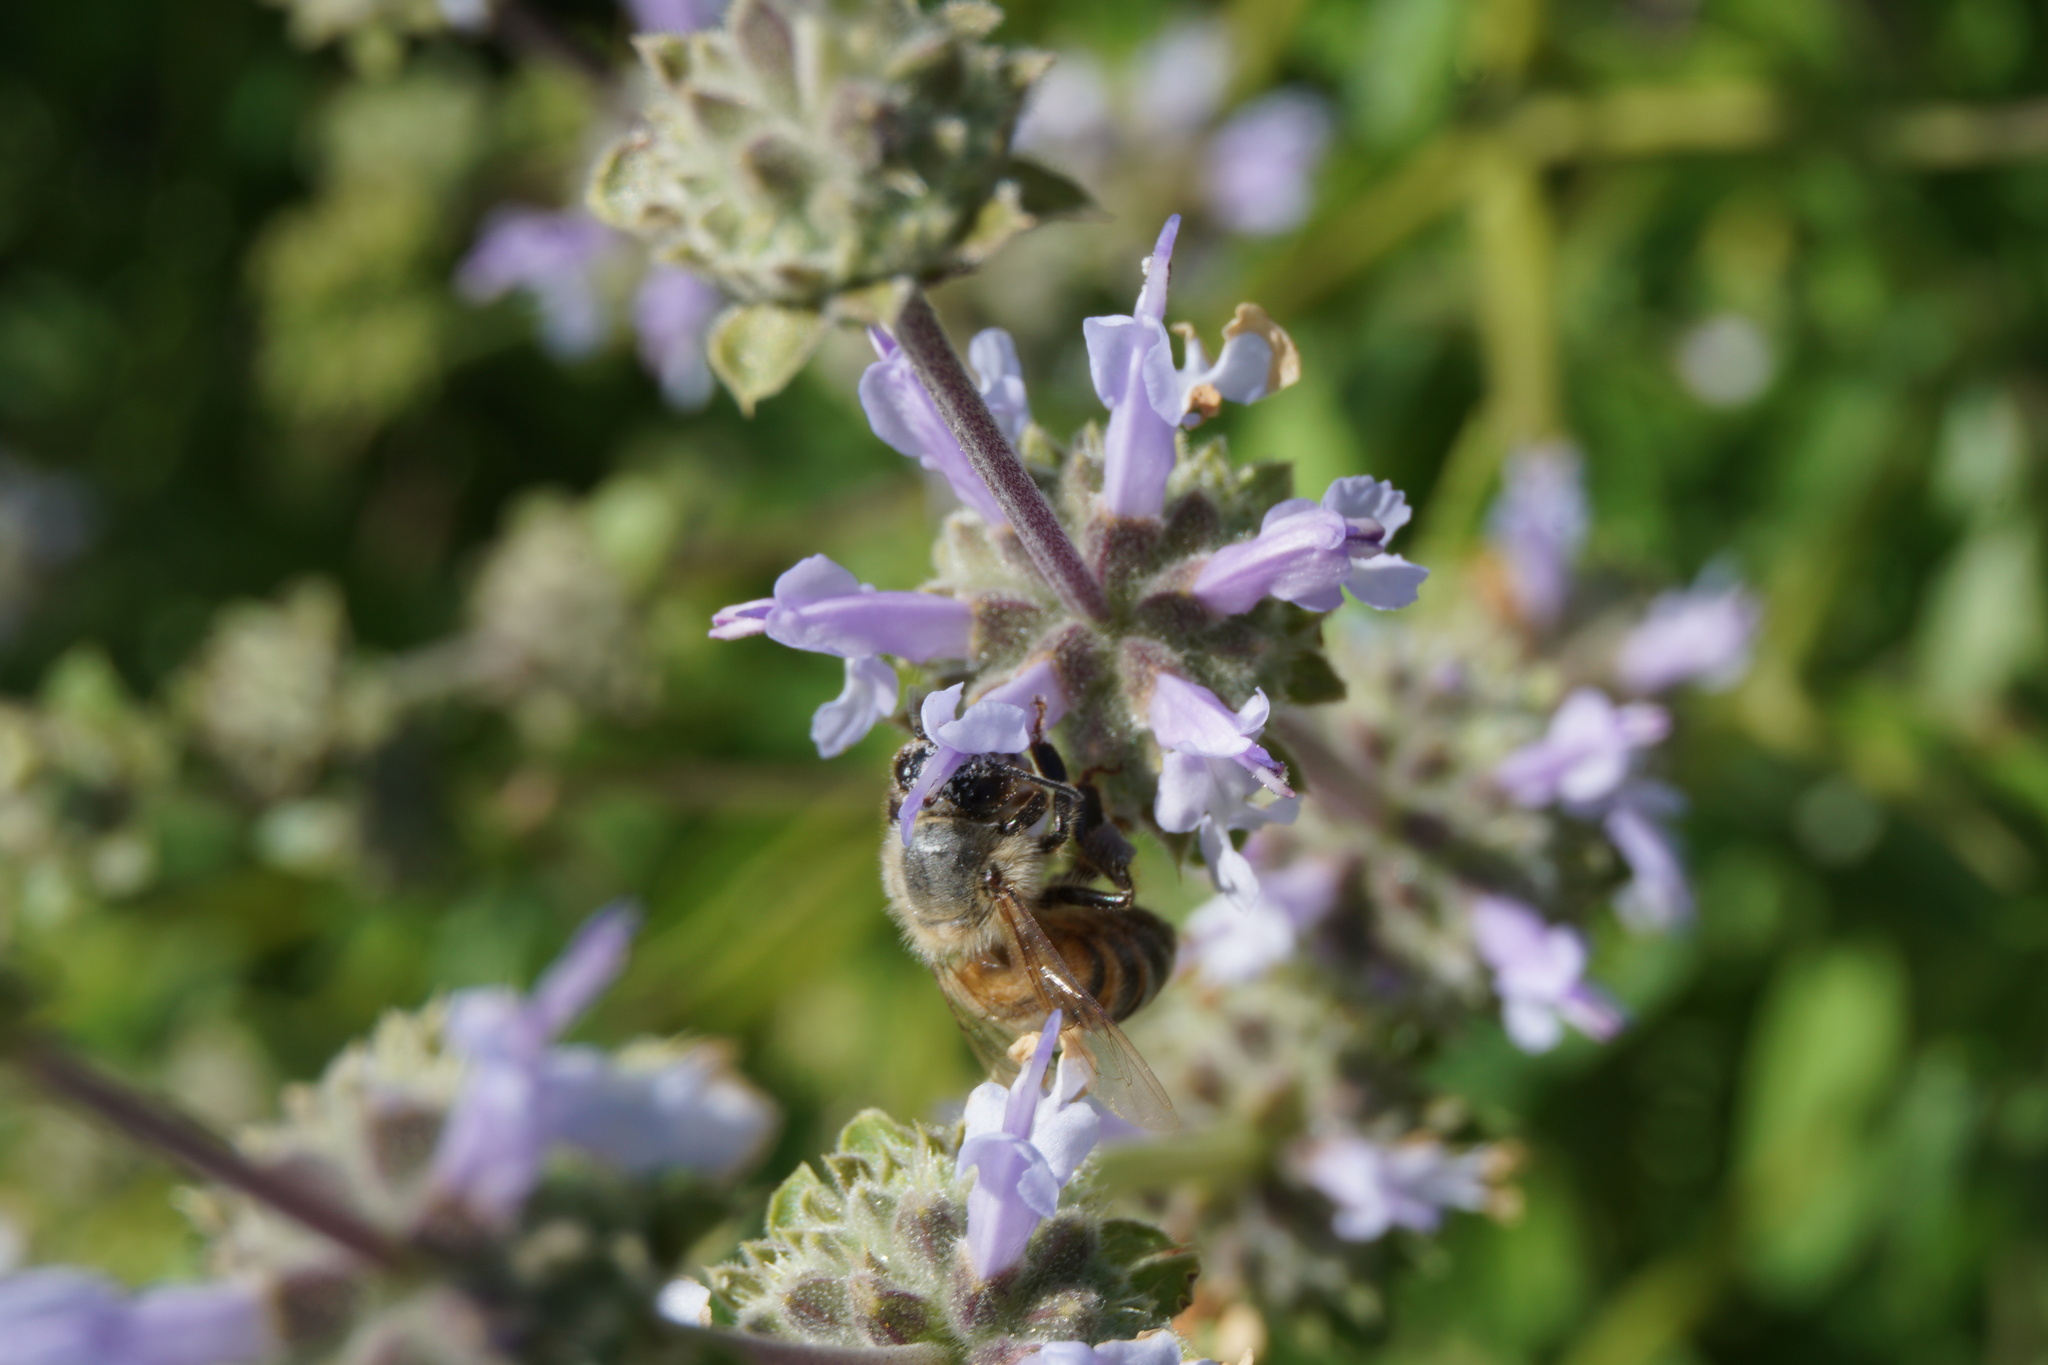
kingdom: Plantae
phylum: Tracheophyta
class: Magnoliopsida
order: Lamiales
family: Lamiaceae
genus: Salvia
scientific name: Salvia mellifera
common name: Black sage
